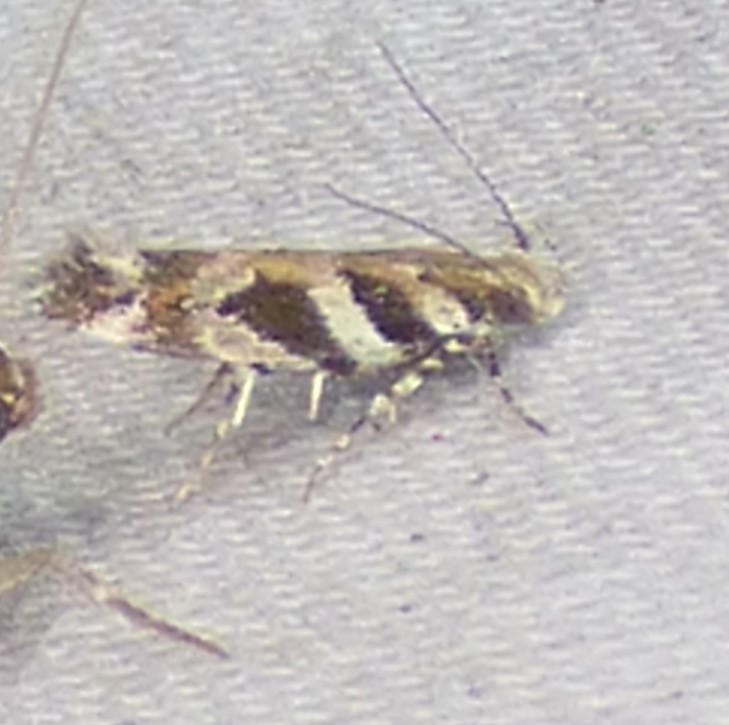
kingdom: Animalia
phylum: Arthropoda
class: Insecta
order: Lepidoptera
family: Gelechiidae
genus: Aristotelia
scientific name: Aristotelia roseosuffusella
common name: Pink-washed aristotelia moth
